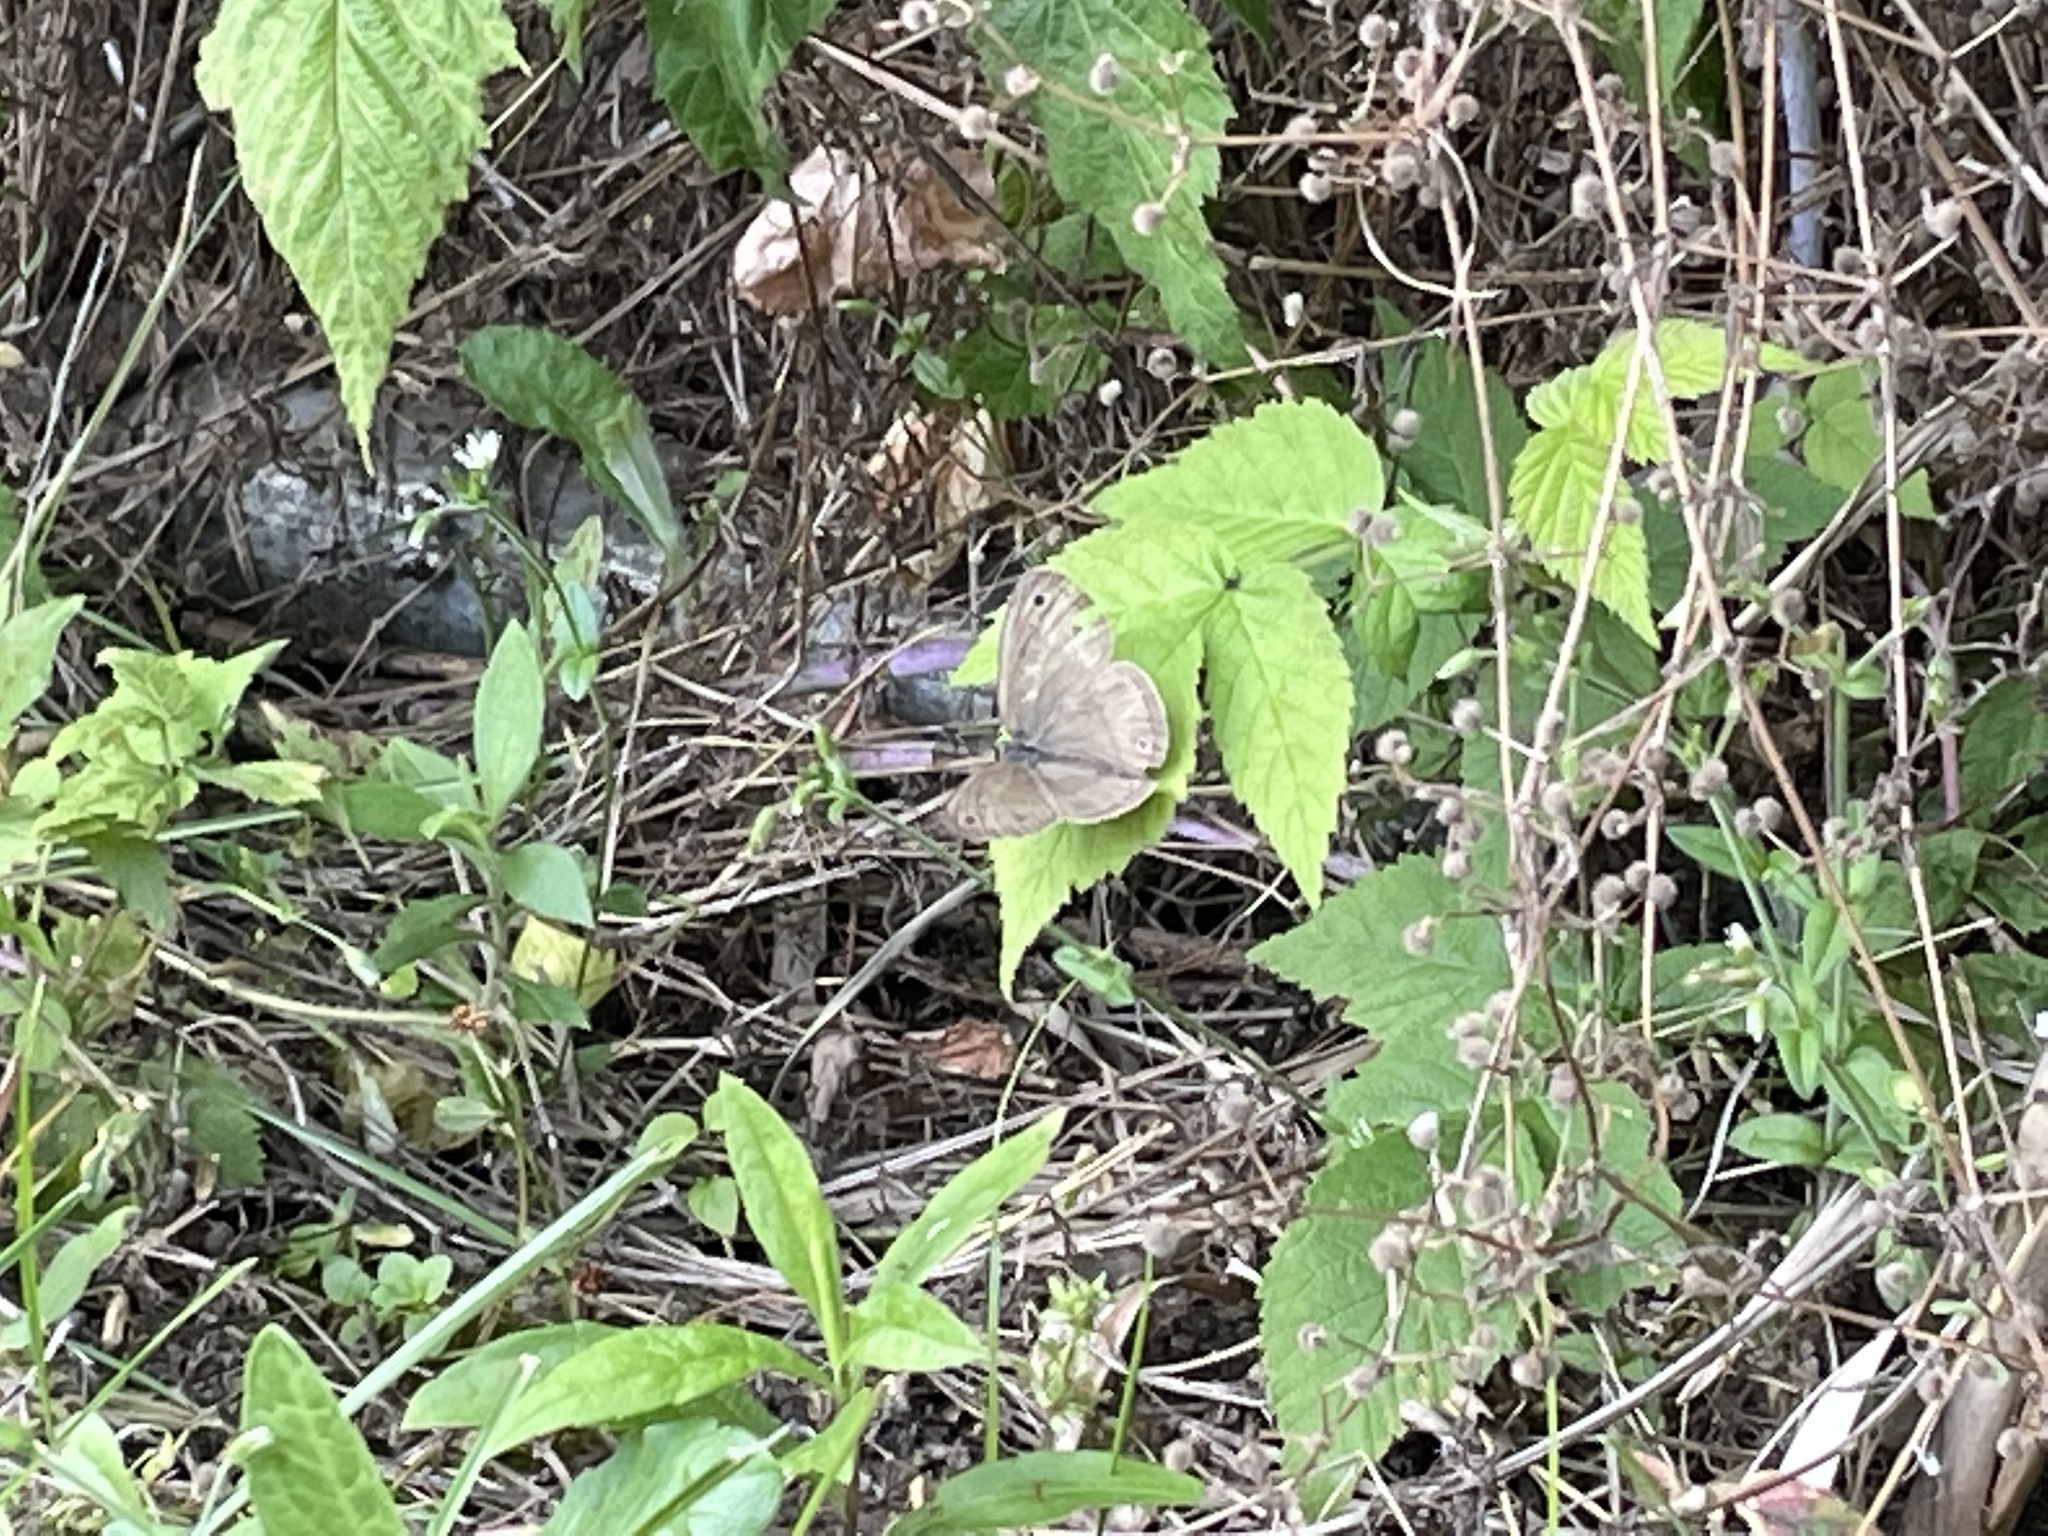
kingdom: Animalia
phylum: Arthropoda
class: Insecta
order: Lepidoptera
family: Nymphalidae
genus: Euptychia
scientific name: Euptychia cymela
